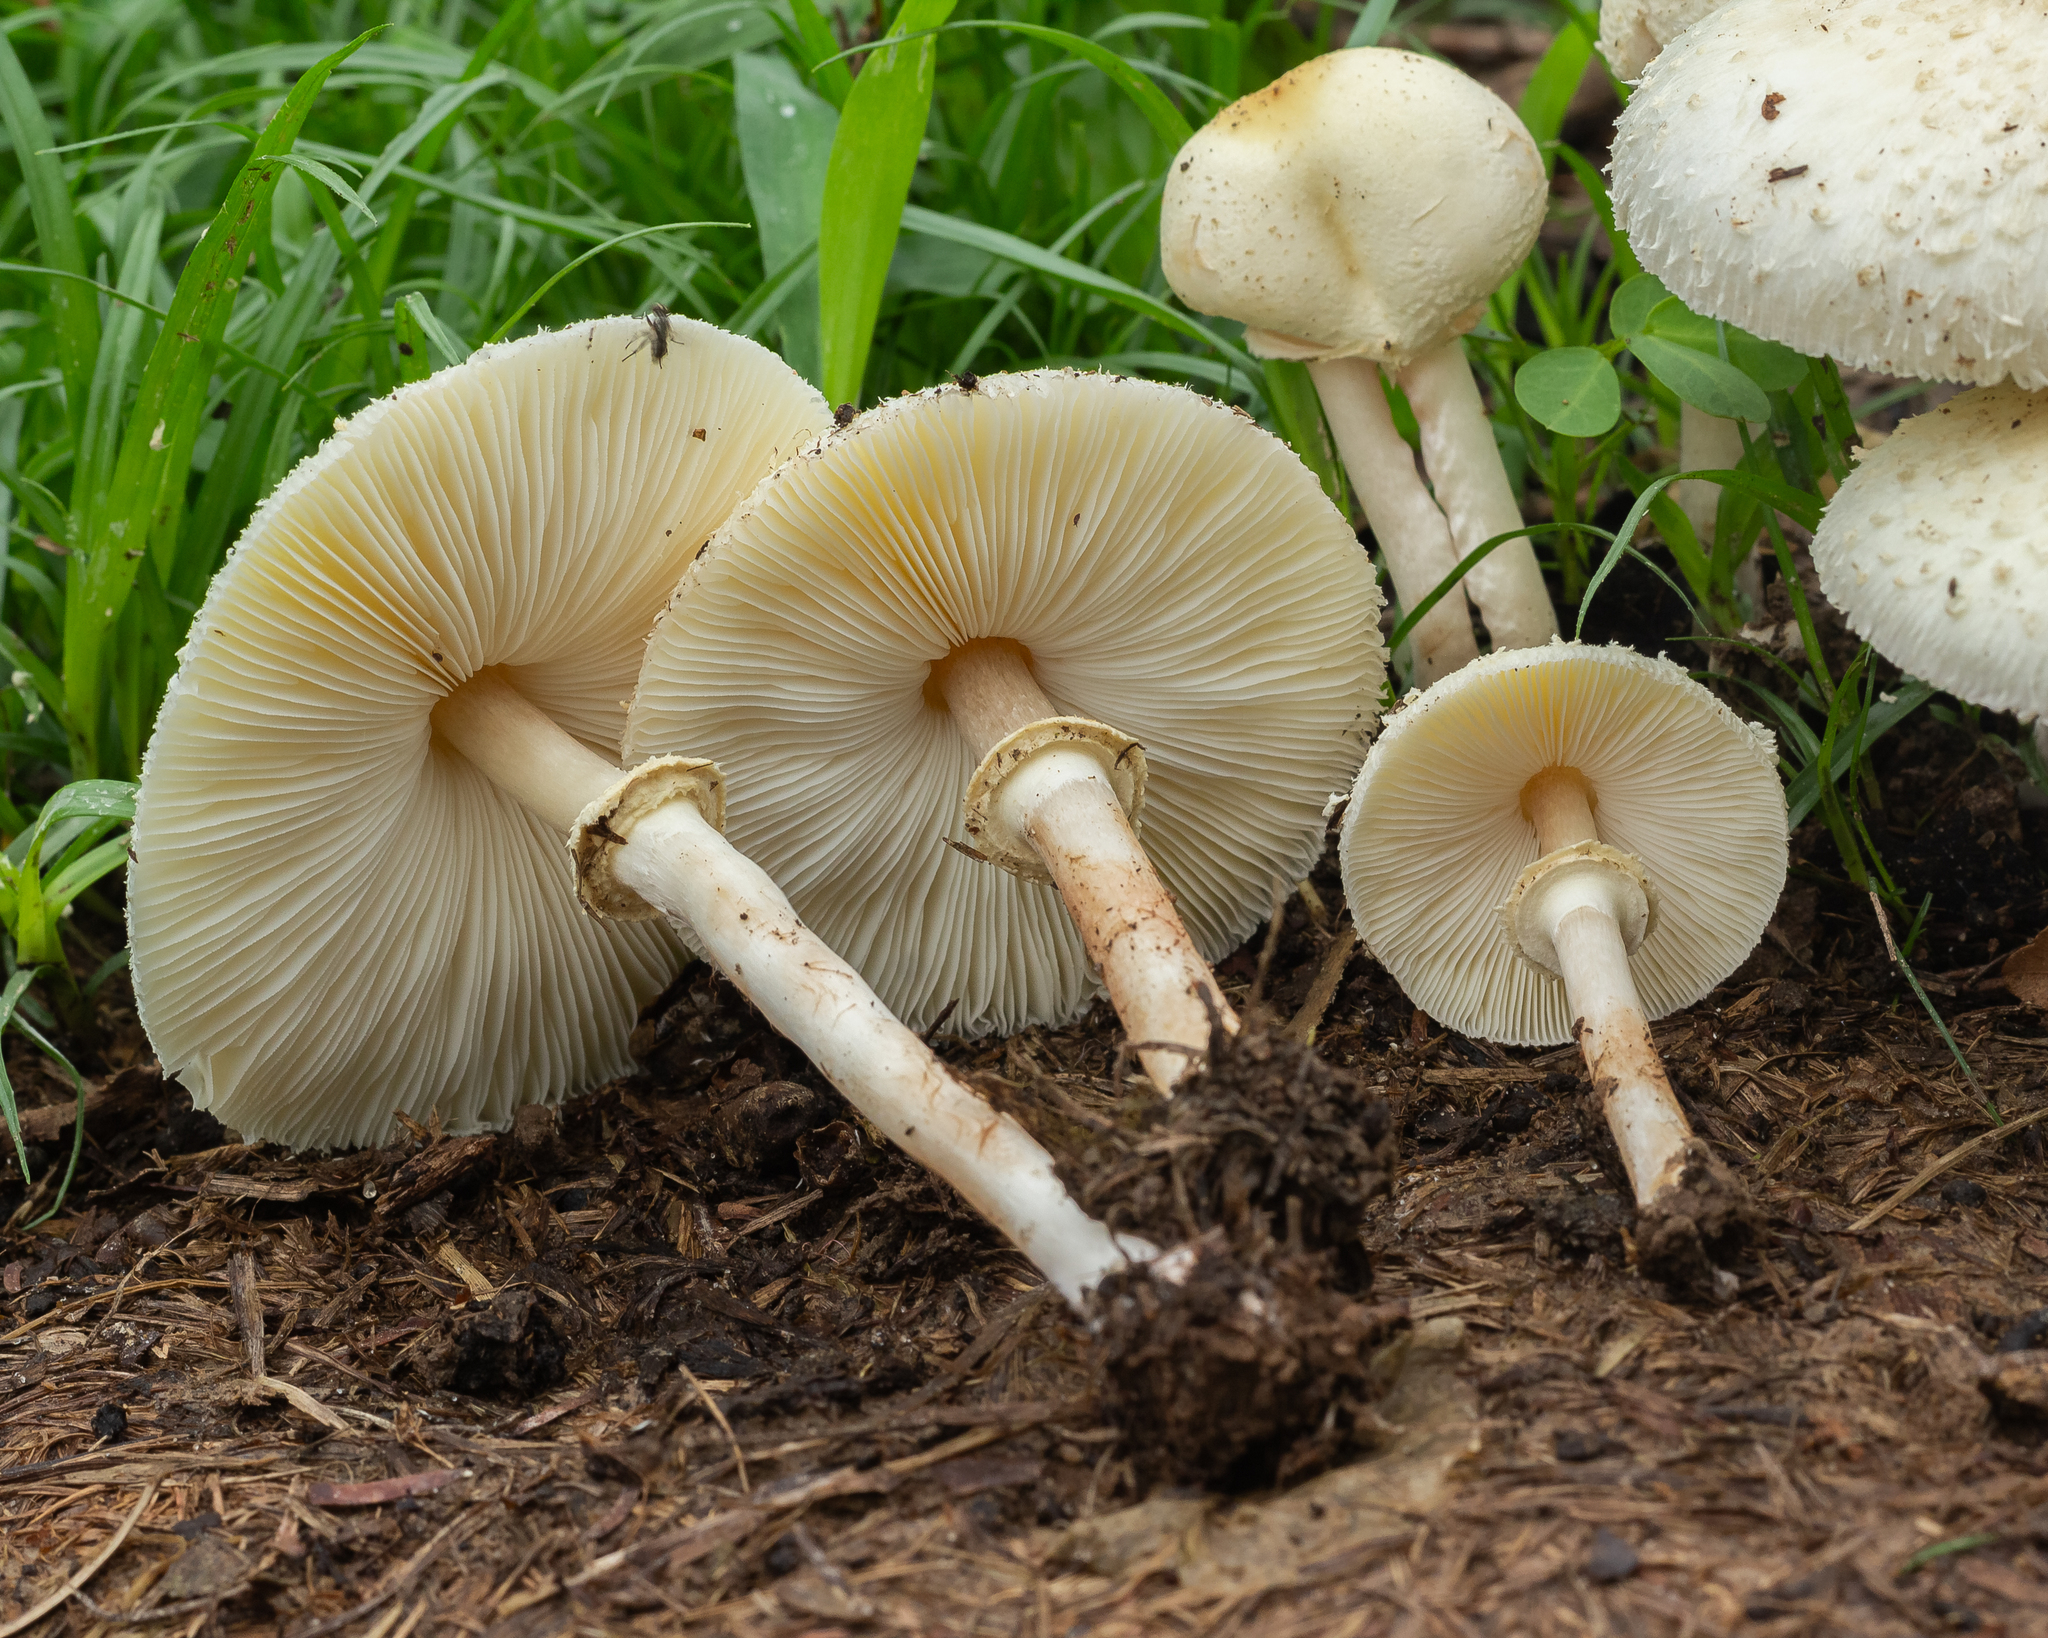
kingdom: Fungi
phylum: Basidiomycota
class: Agaricomycetes
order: Agaricales
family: Agaricaceae
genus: Chlorophyllum
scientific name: Chlorophyllum hortense
